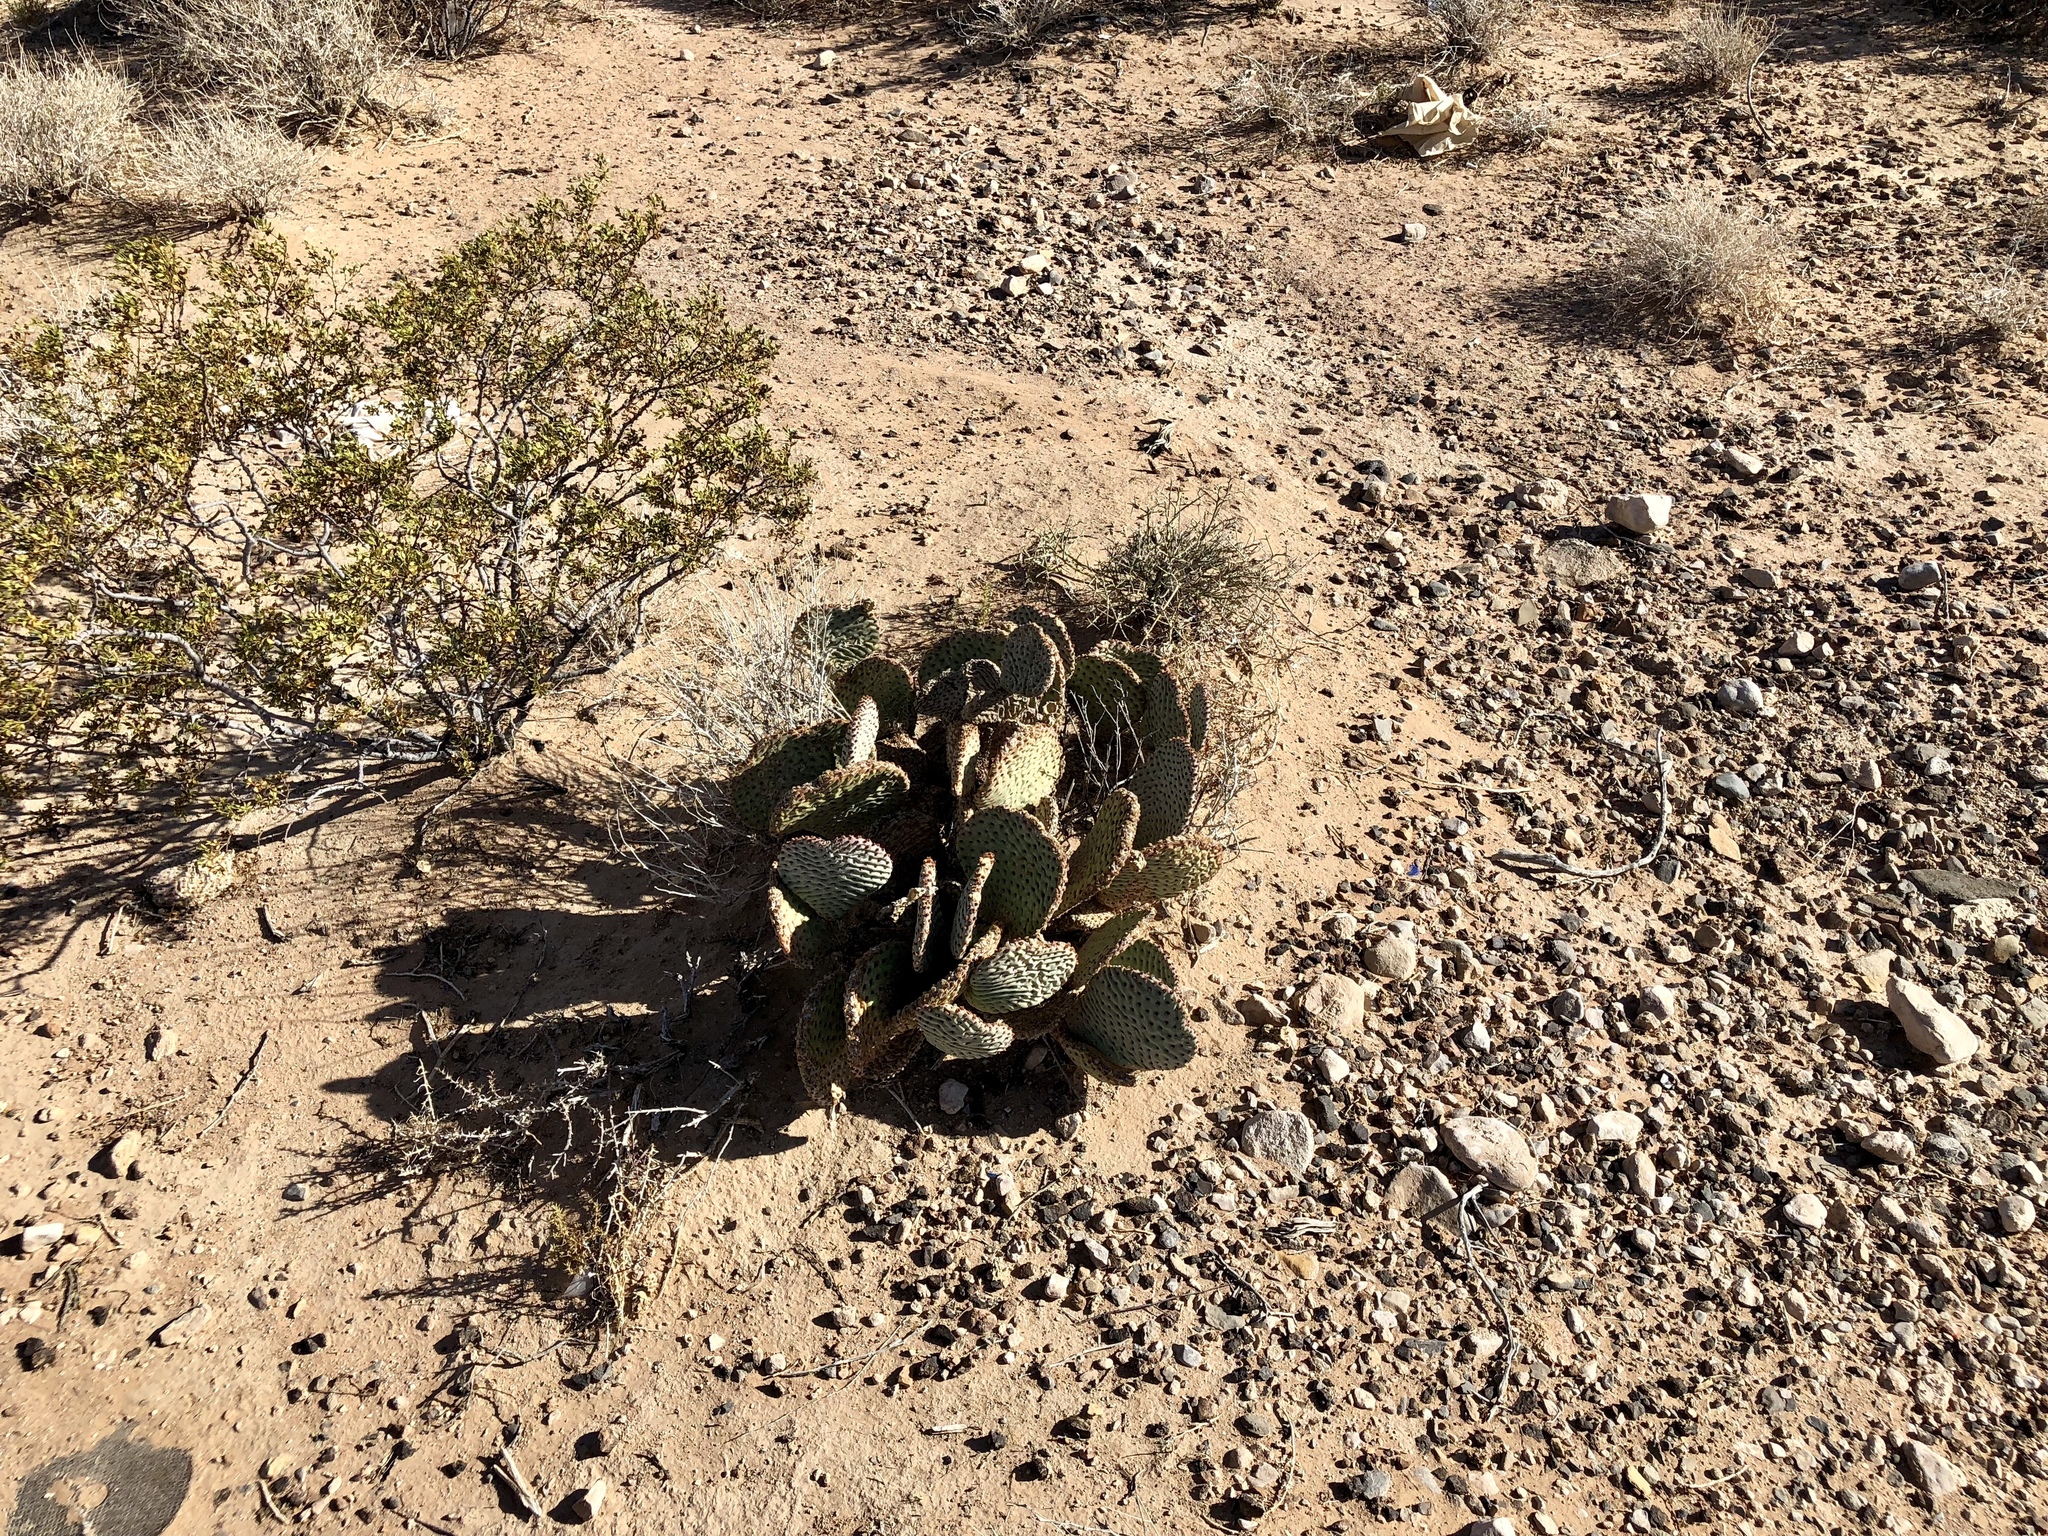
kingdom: Plantae
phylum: Tracheophyta
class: Magnoliopsida
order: Caryophyllales
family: Cactaceae
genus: Opuntia
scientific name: Opuntia basilaris
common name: Beavertail prickly-pear
